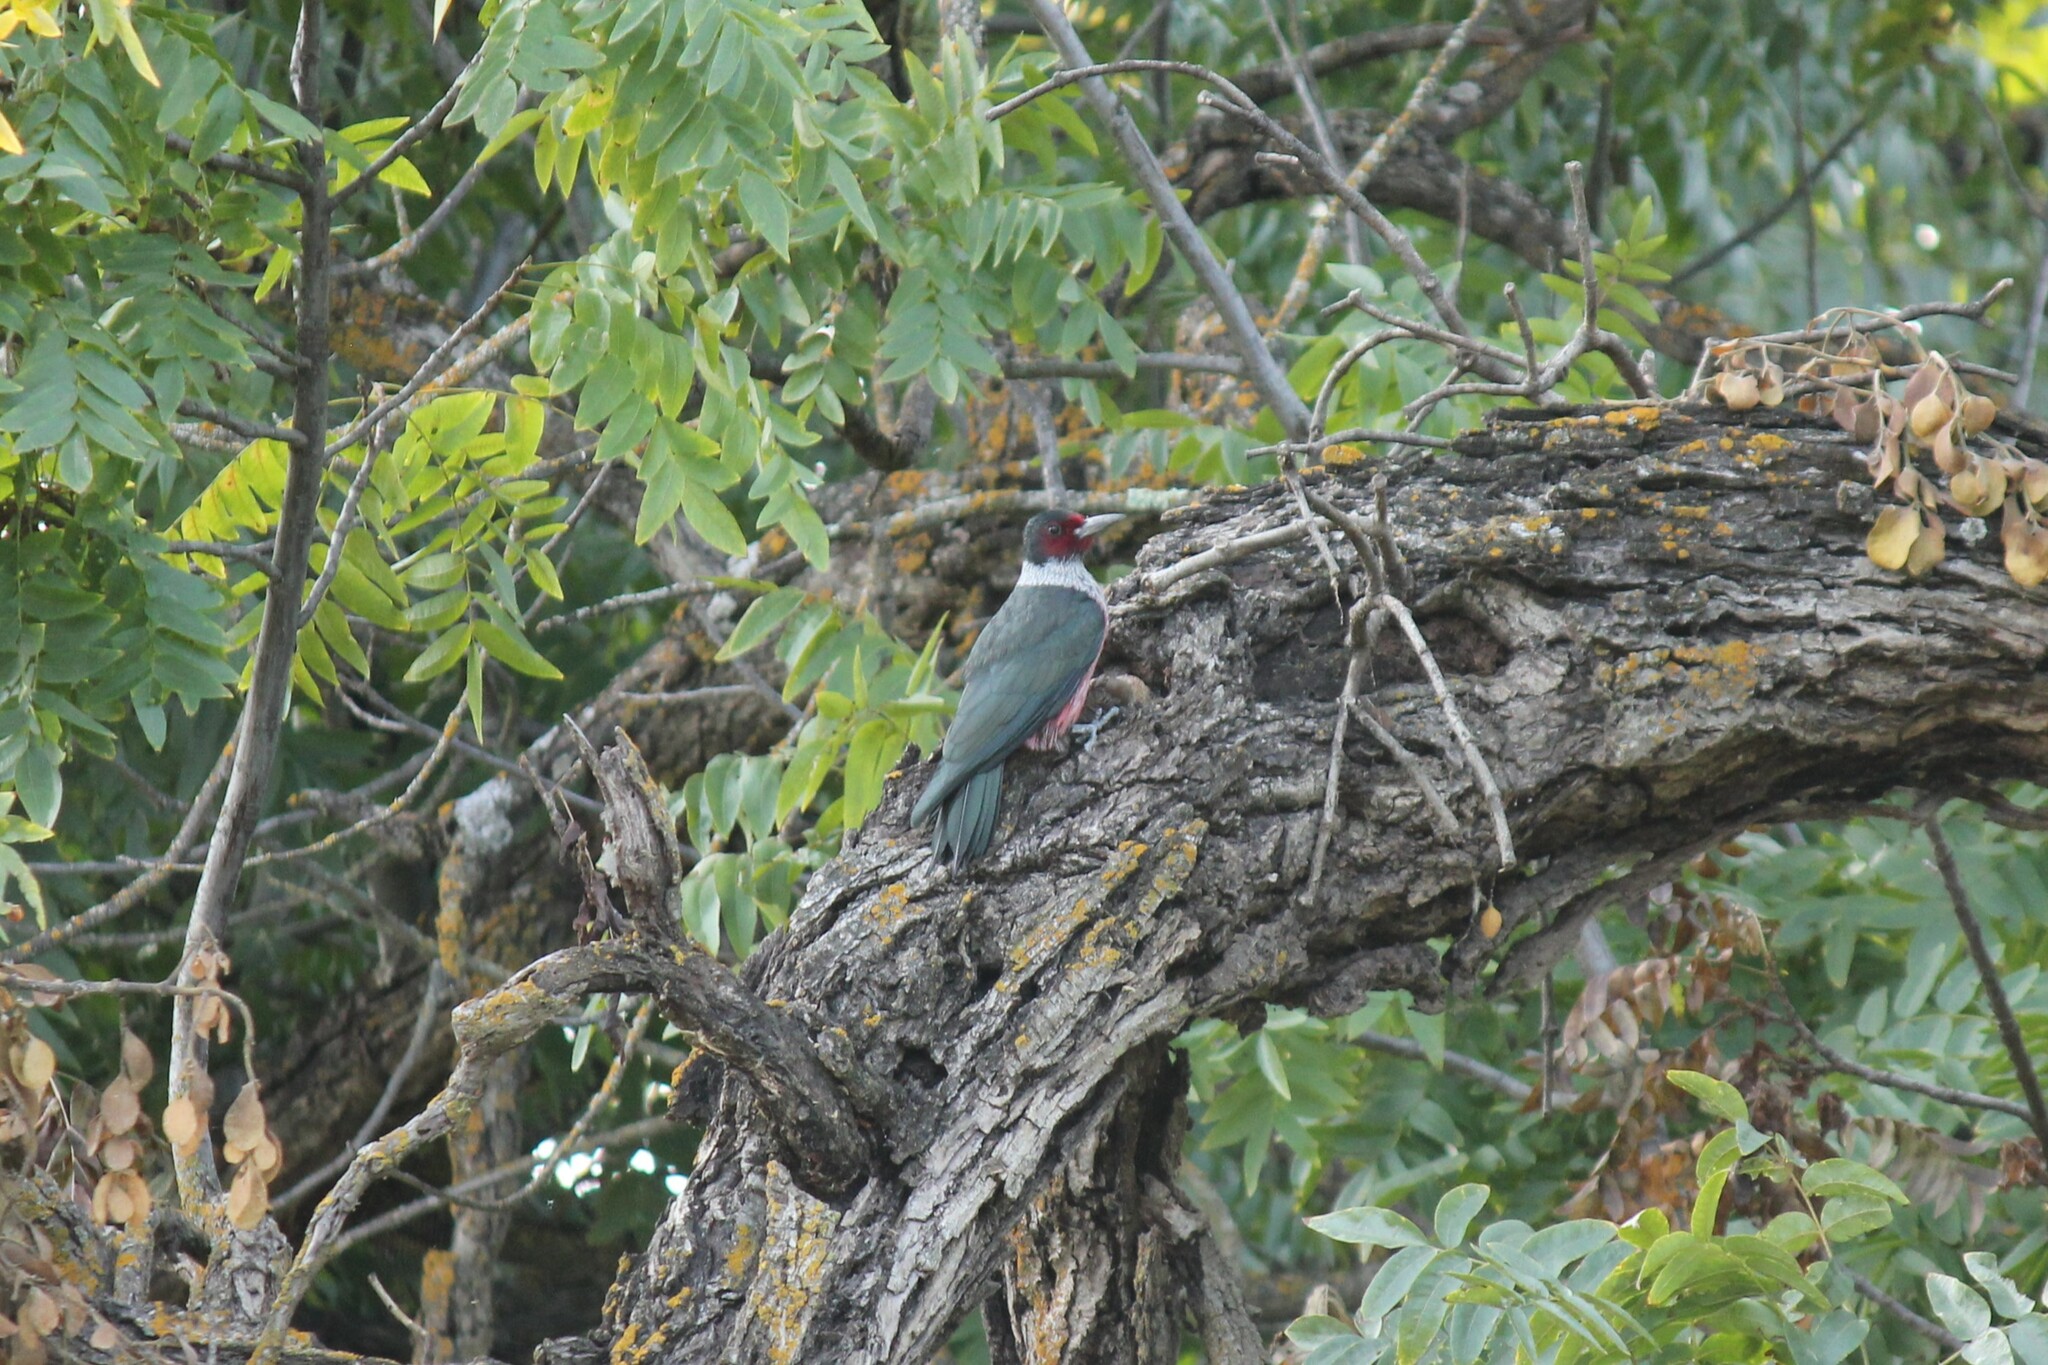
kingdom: Animalia
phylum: Chordata
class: Aves
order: Piciformes
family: Picidae
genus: Melanerpes
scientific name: Melanerpes lewis
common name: Lewis's woodpecker
